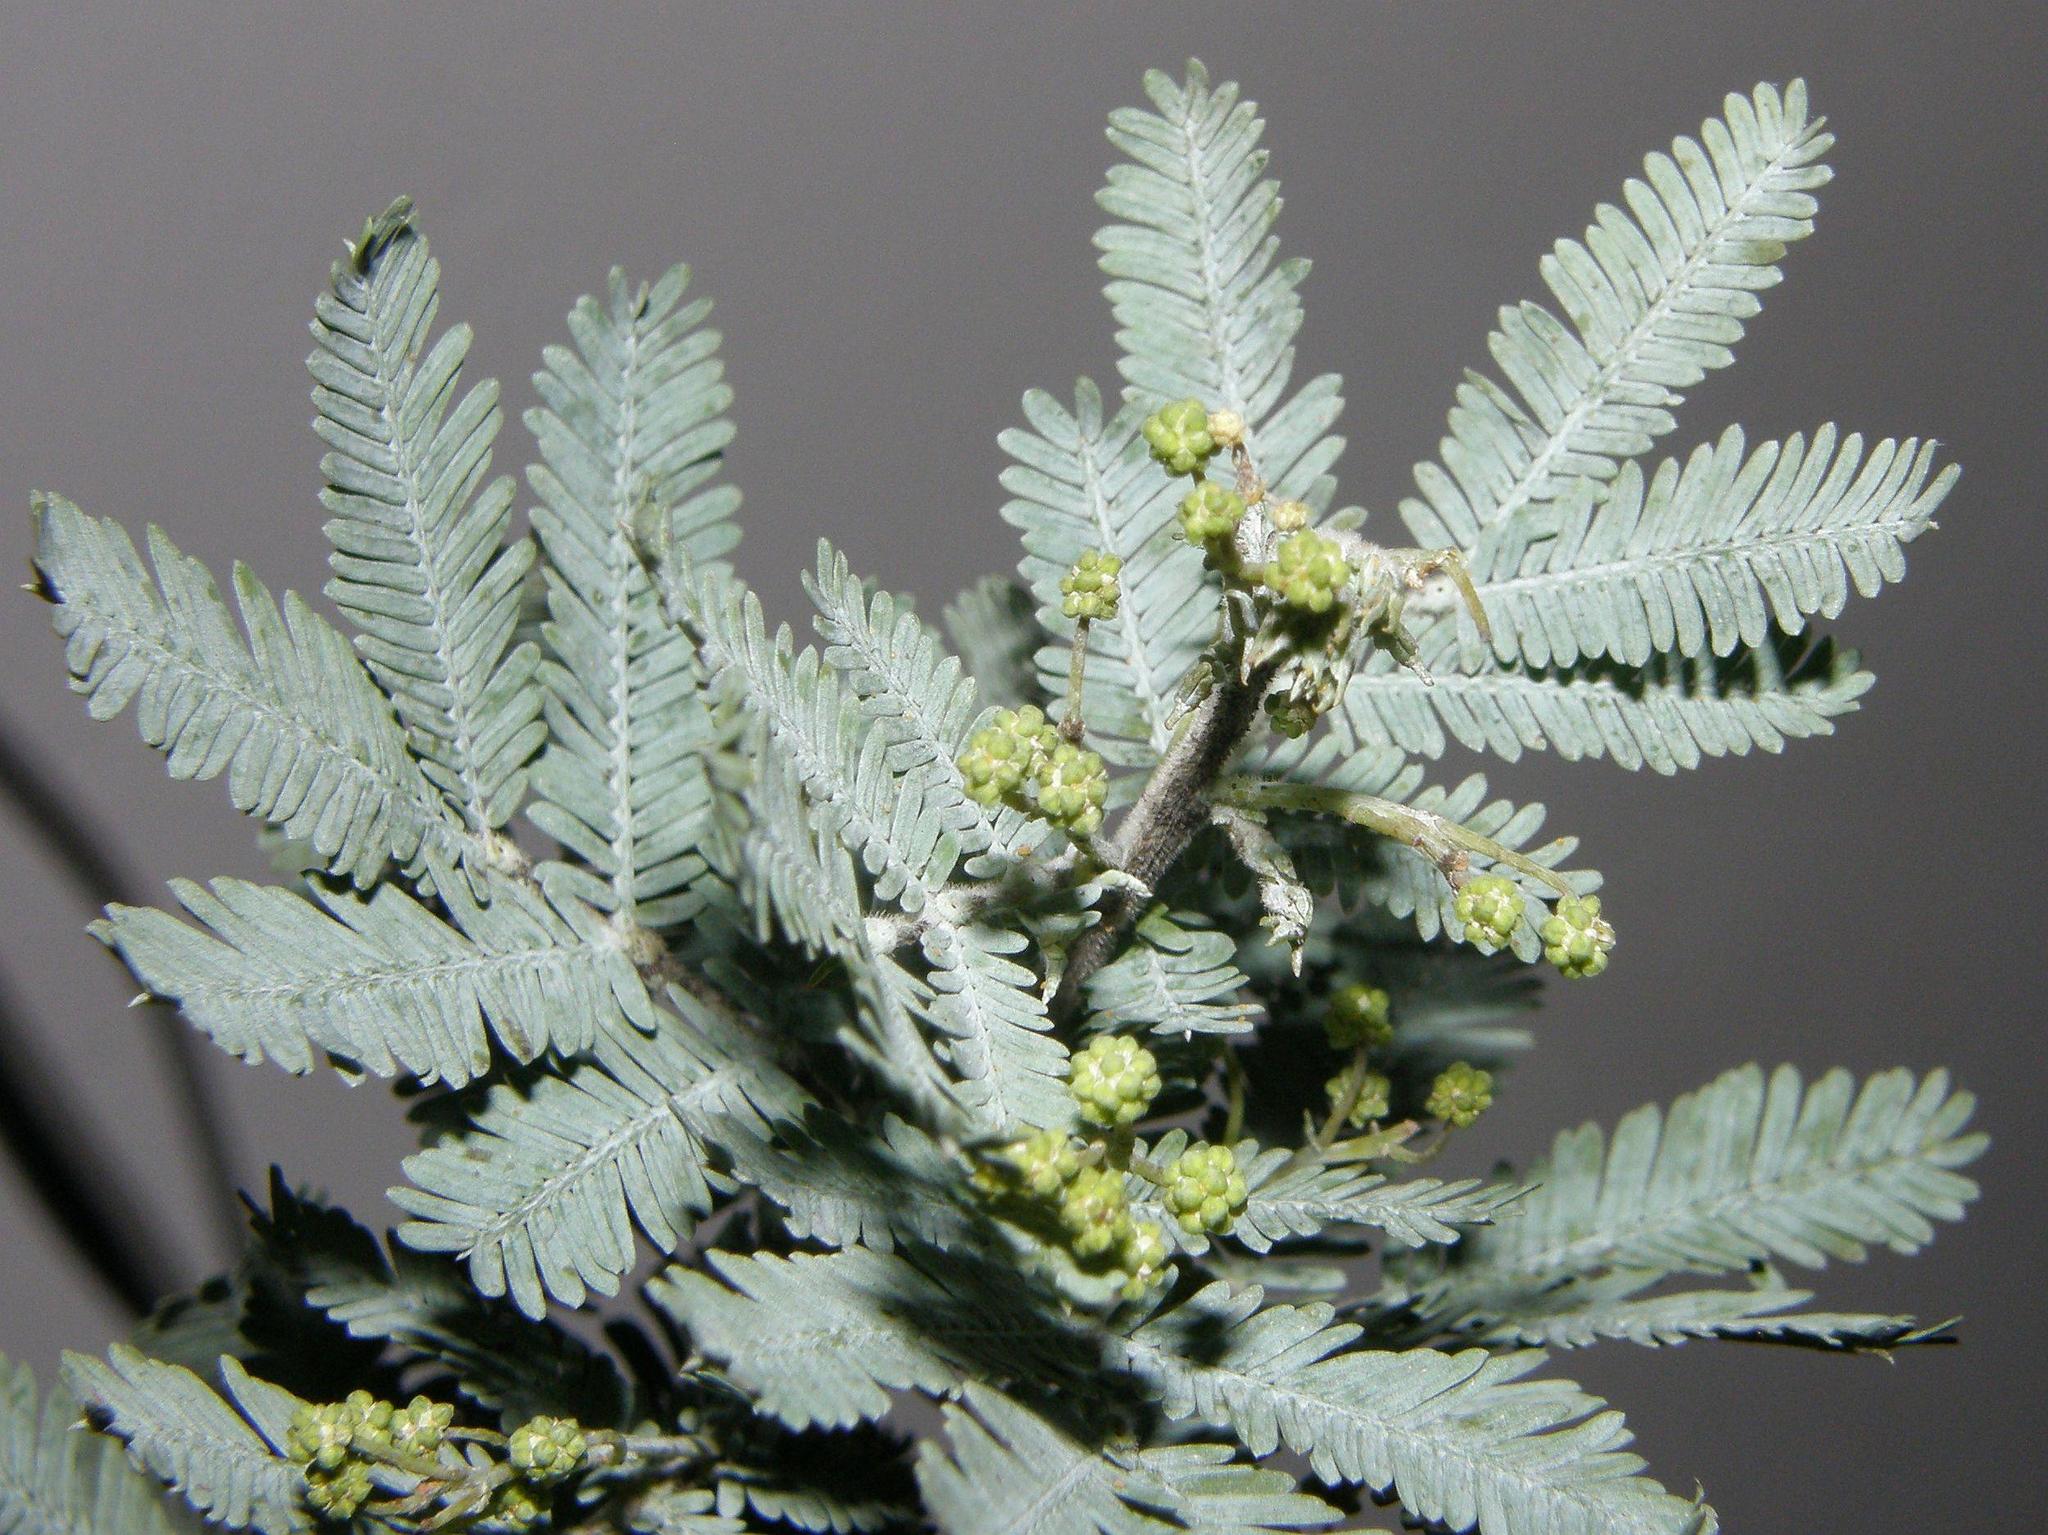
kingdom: Plantae
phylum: Tracheophyta
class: Magnoliopsida
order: Fabales
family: Fabaceae
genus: Acacia
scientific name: Acacia baileyana
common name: Cootamundra wattle
